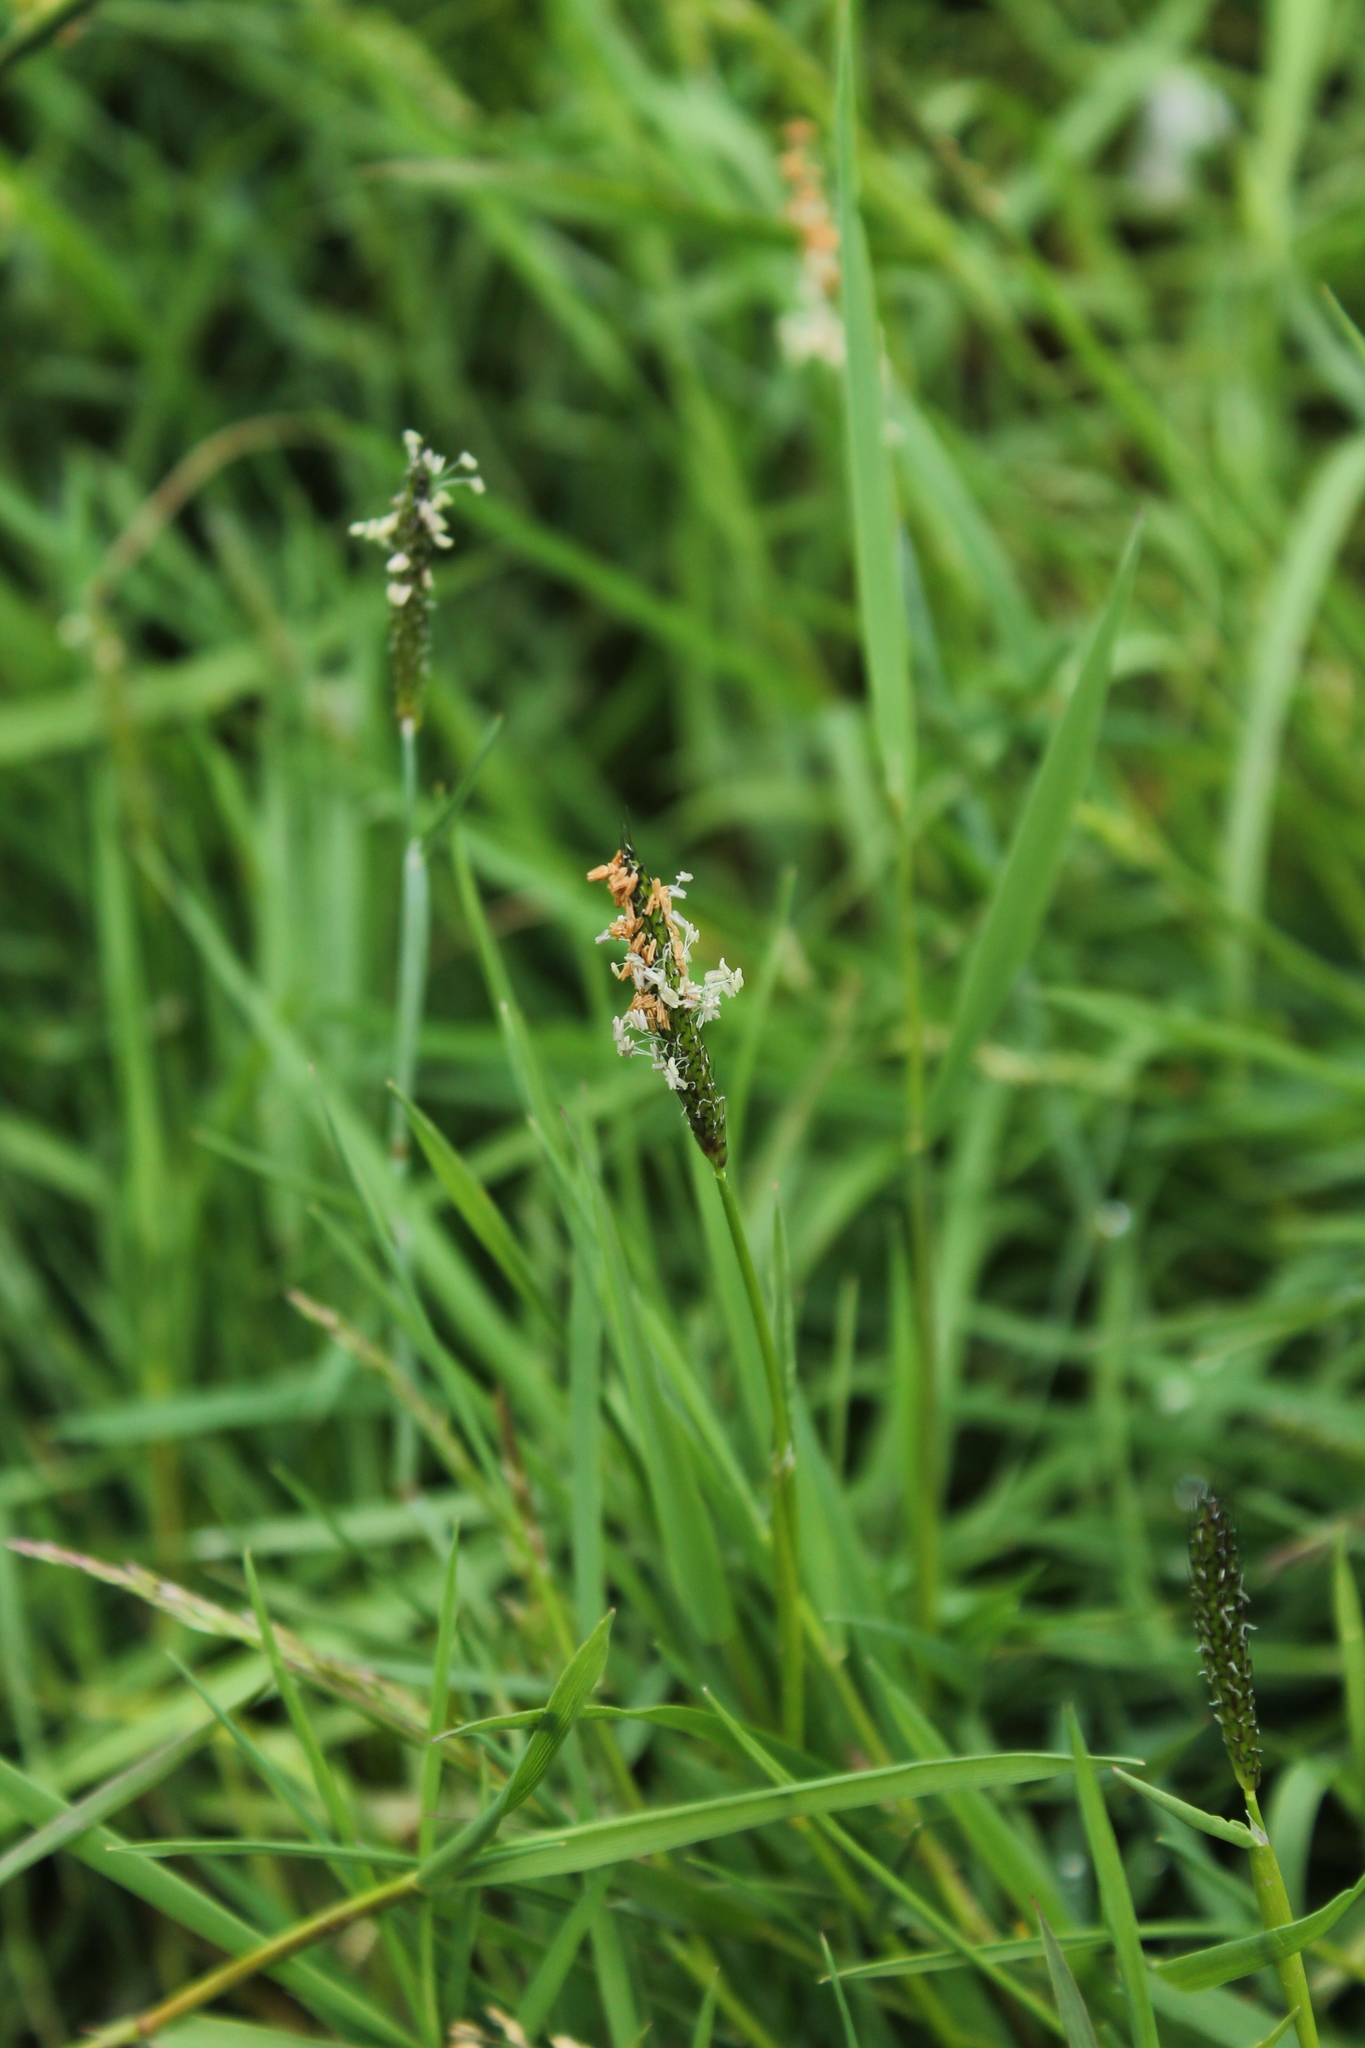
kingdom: Plantae
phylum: Tracheophyta
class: Liliopsida
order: Poales
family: Poaceae
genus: Alopecurus
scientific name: Alopecurus geniculatus
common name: Water foxtail
